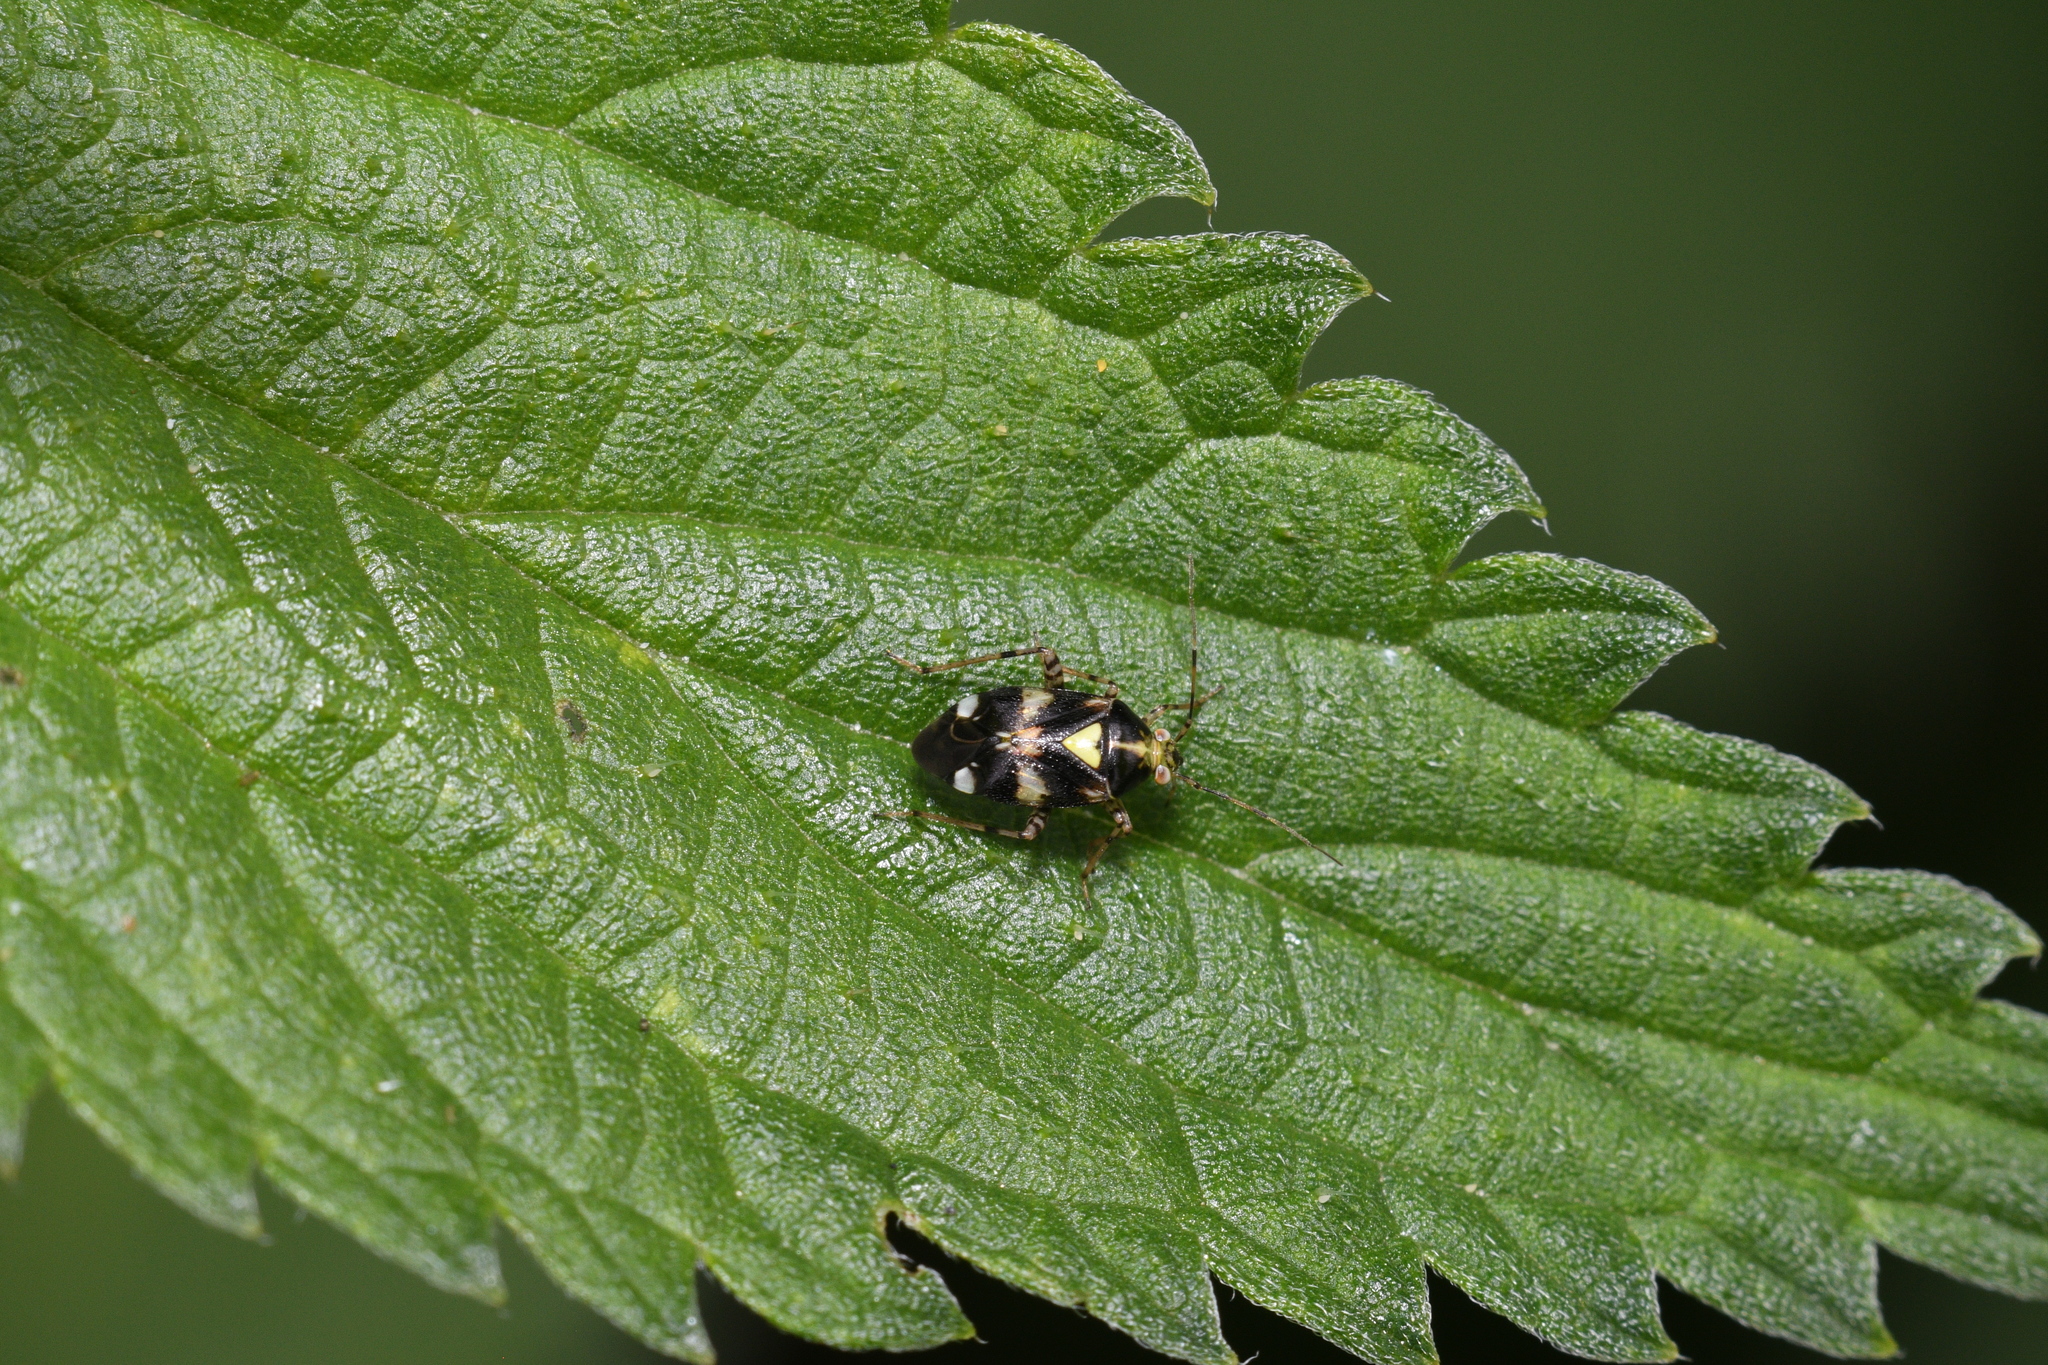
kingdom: Animalia
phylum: Arthropoda
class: Insecta
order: Hemiptera
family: Miridae
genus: Liocoris
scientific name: Liocoris tripustulatus
